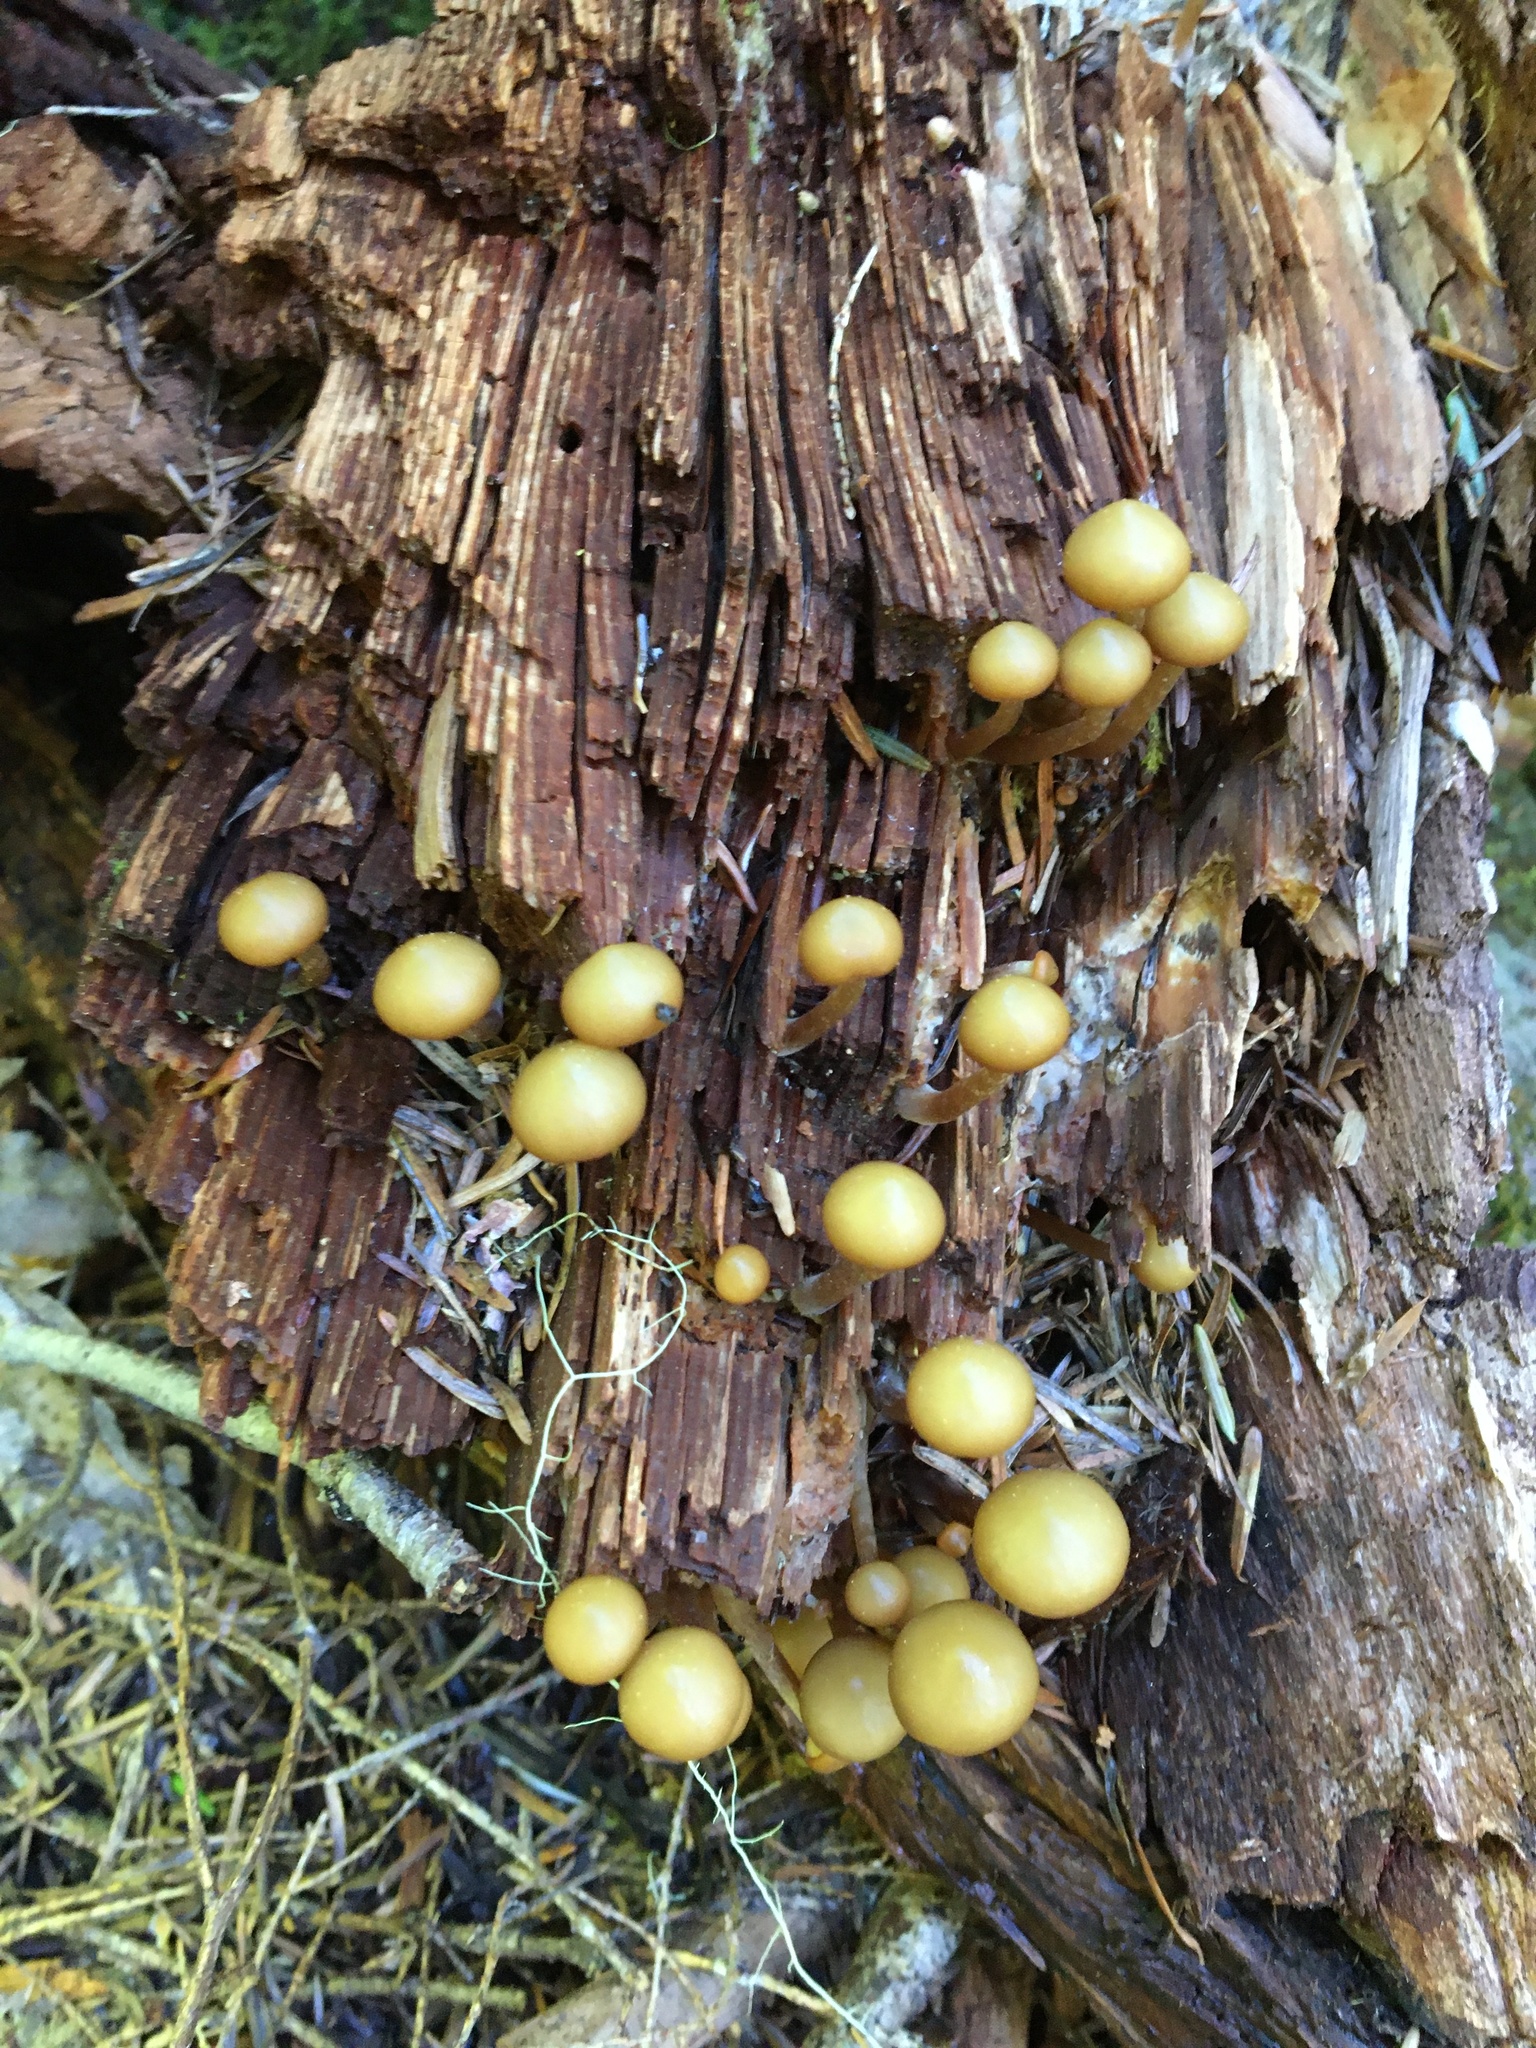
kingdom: Fungi
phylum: Basidiomycota
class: Agaricomycetes
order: Agaricales
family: Strophariaceae
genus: Kuehneromyces
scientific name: Kuehneromyces mutabilis
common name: Sheathed woodtuft
